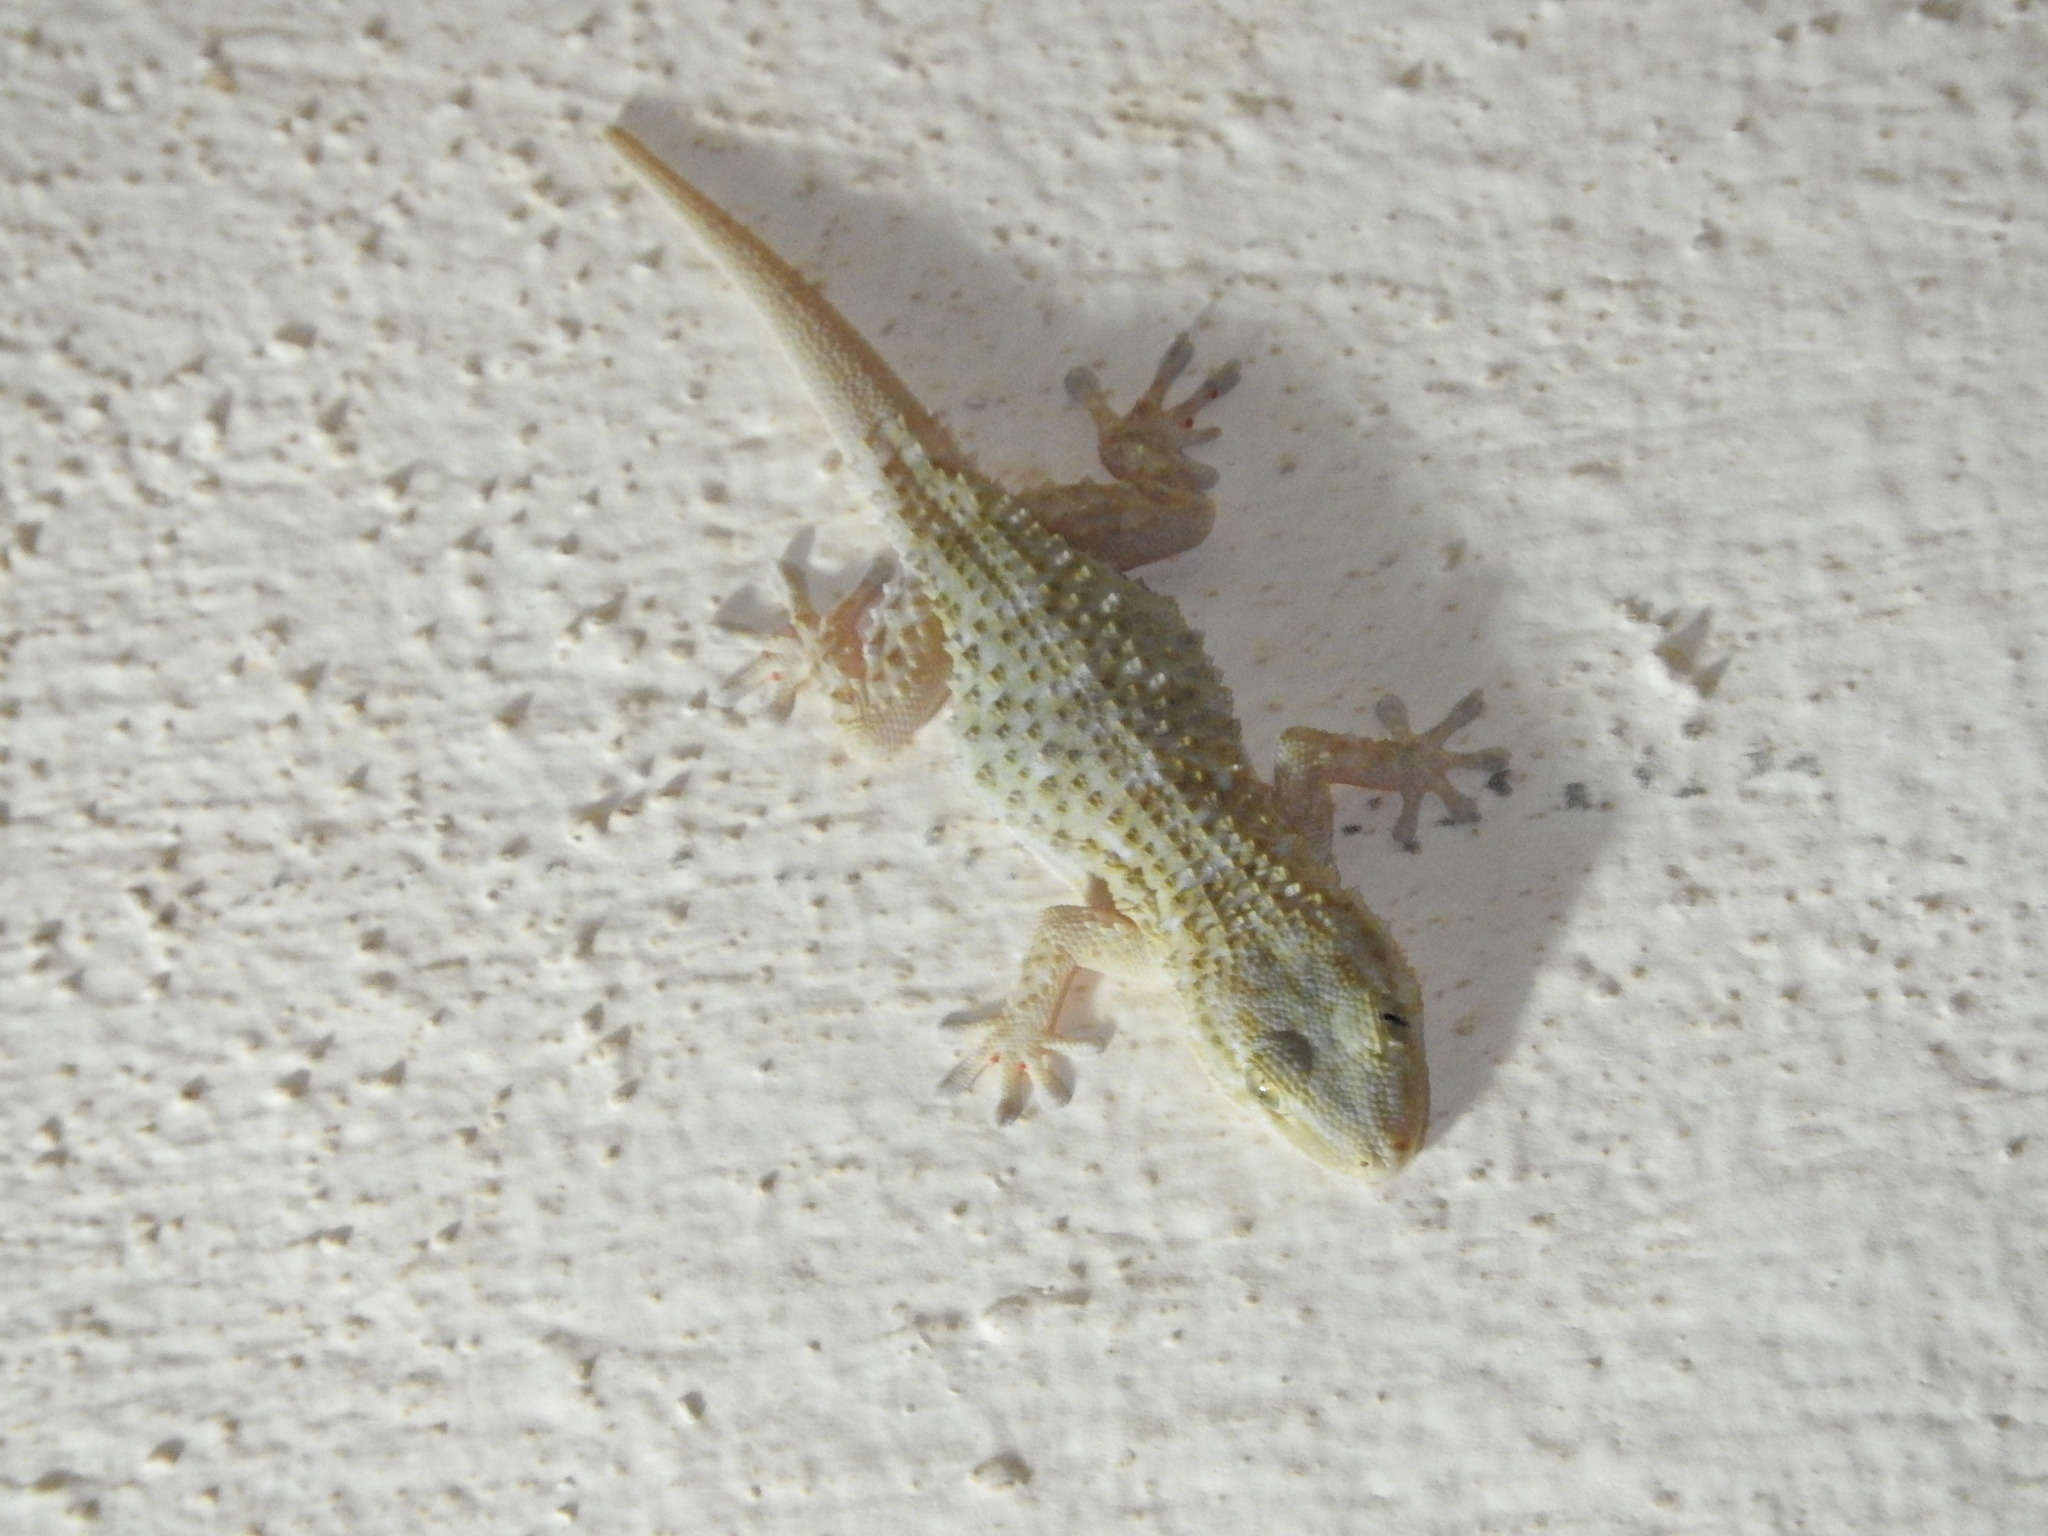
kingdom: Animalia
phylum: Chordata
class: Squamata
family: Phyllodactylidae
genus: Tarentola
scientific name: Tarentola mauritanica
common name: Moorish gecko
